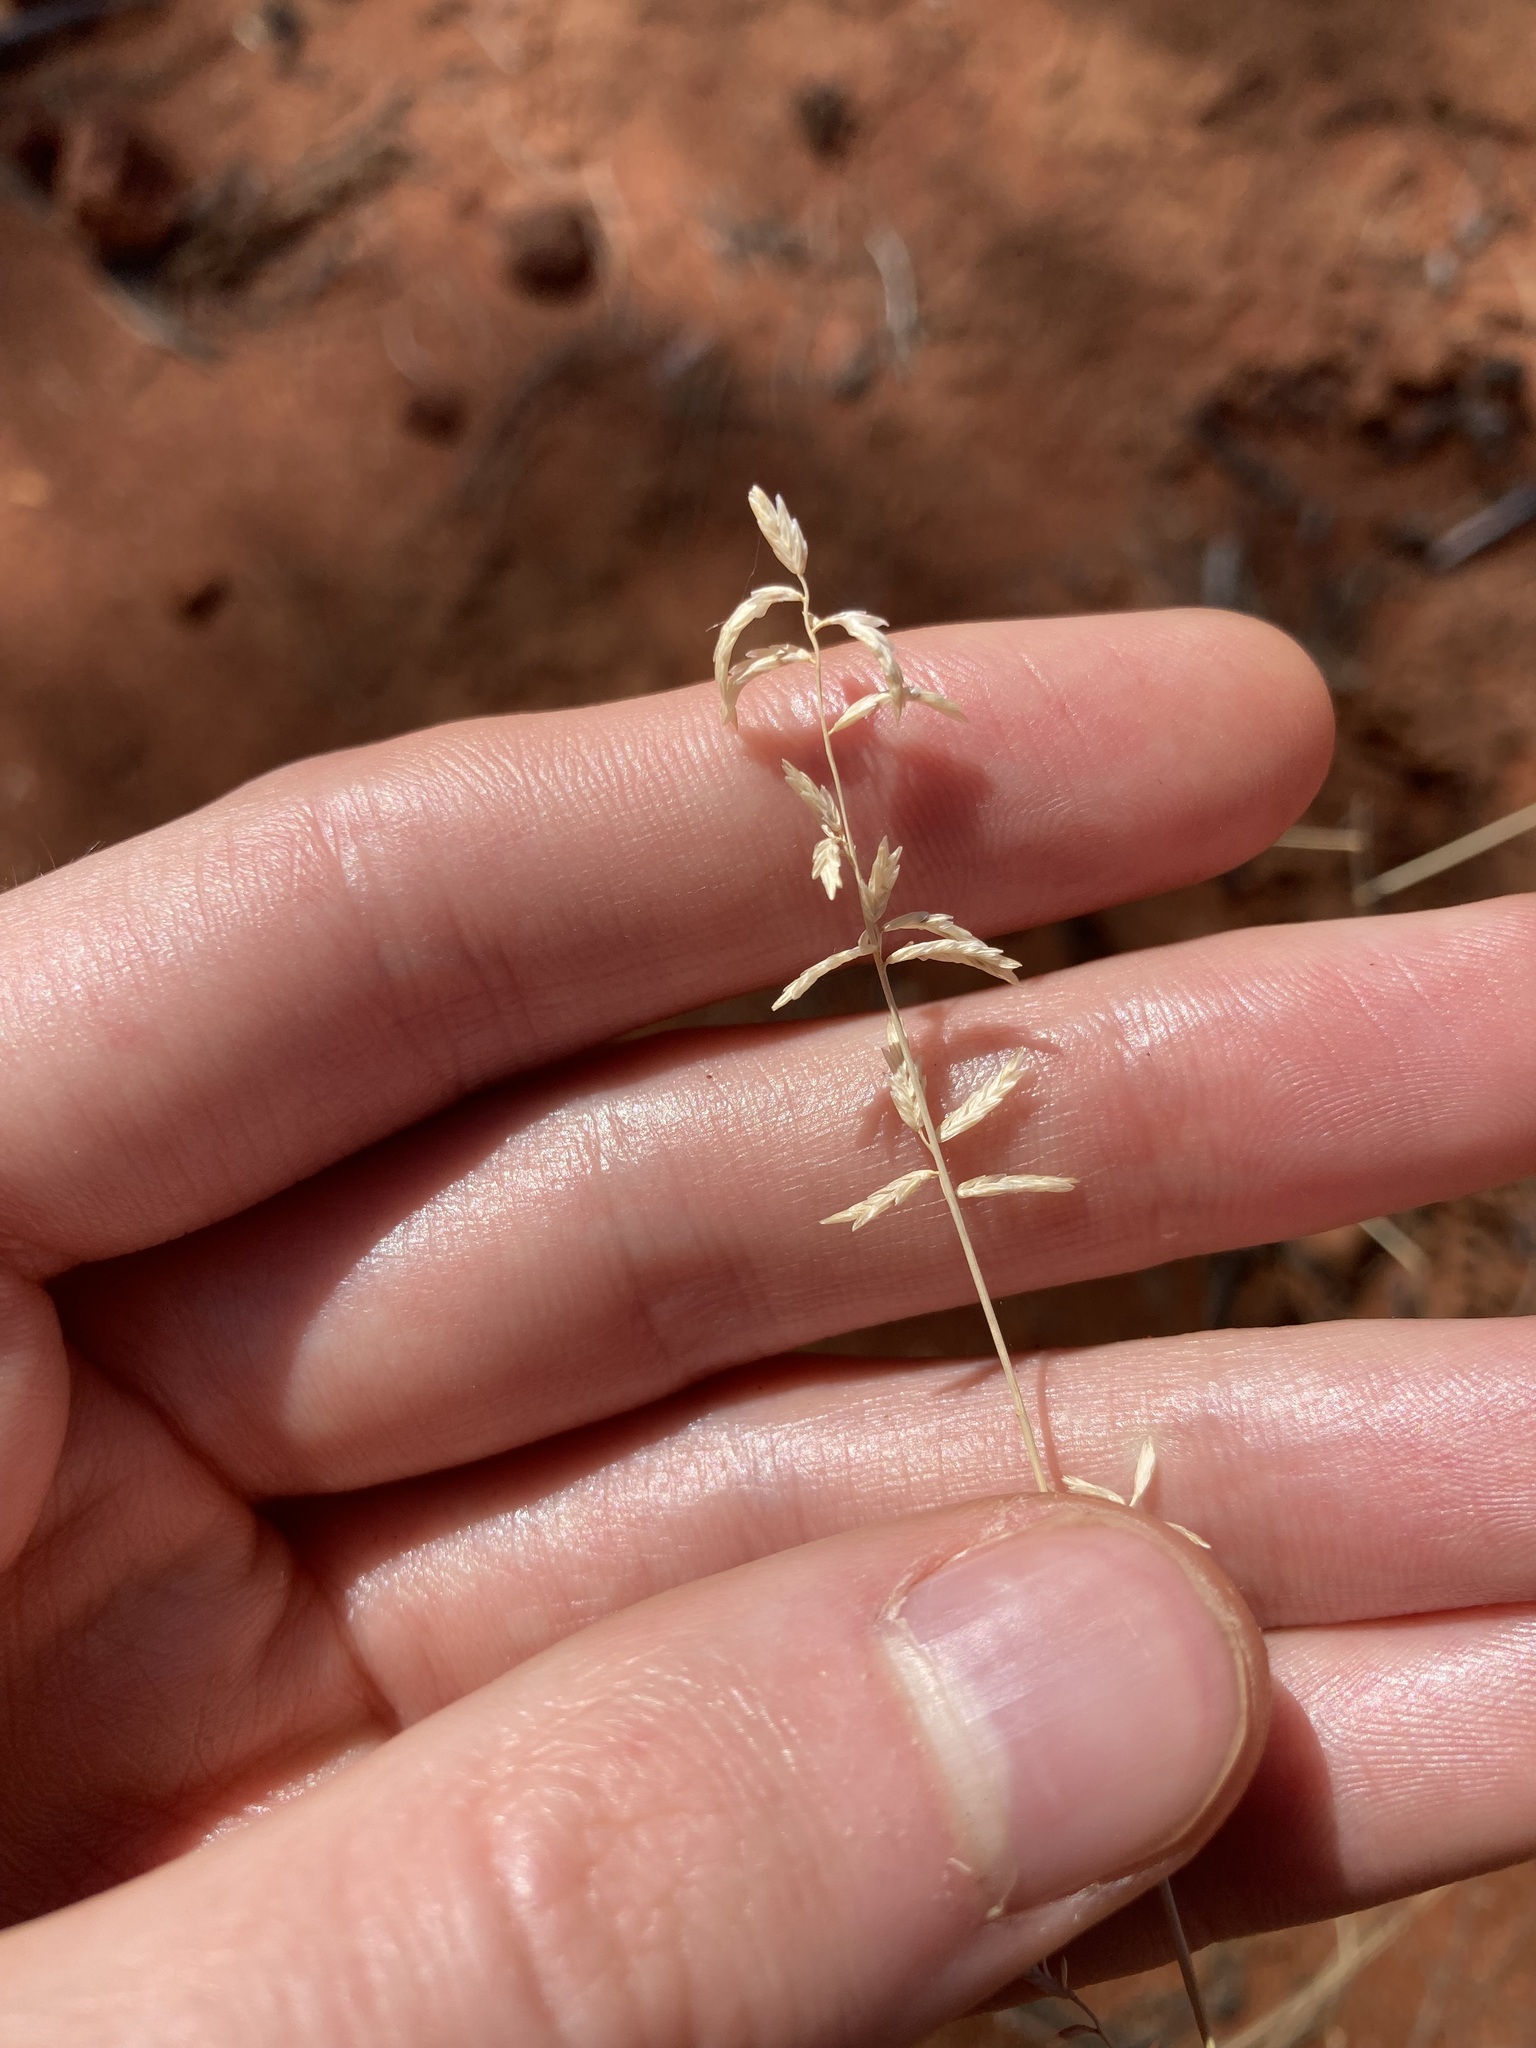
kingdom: Plantae
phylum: Tracheophyta
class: Liliopsida
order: Poales
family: Poaceae
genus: Eragrostis
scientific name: Eragrostis eriopoda
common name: Plain neverfail
